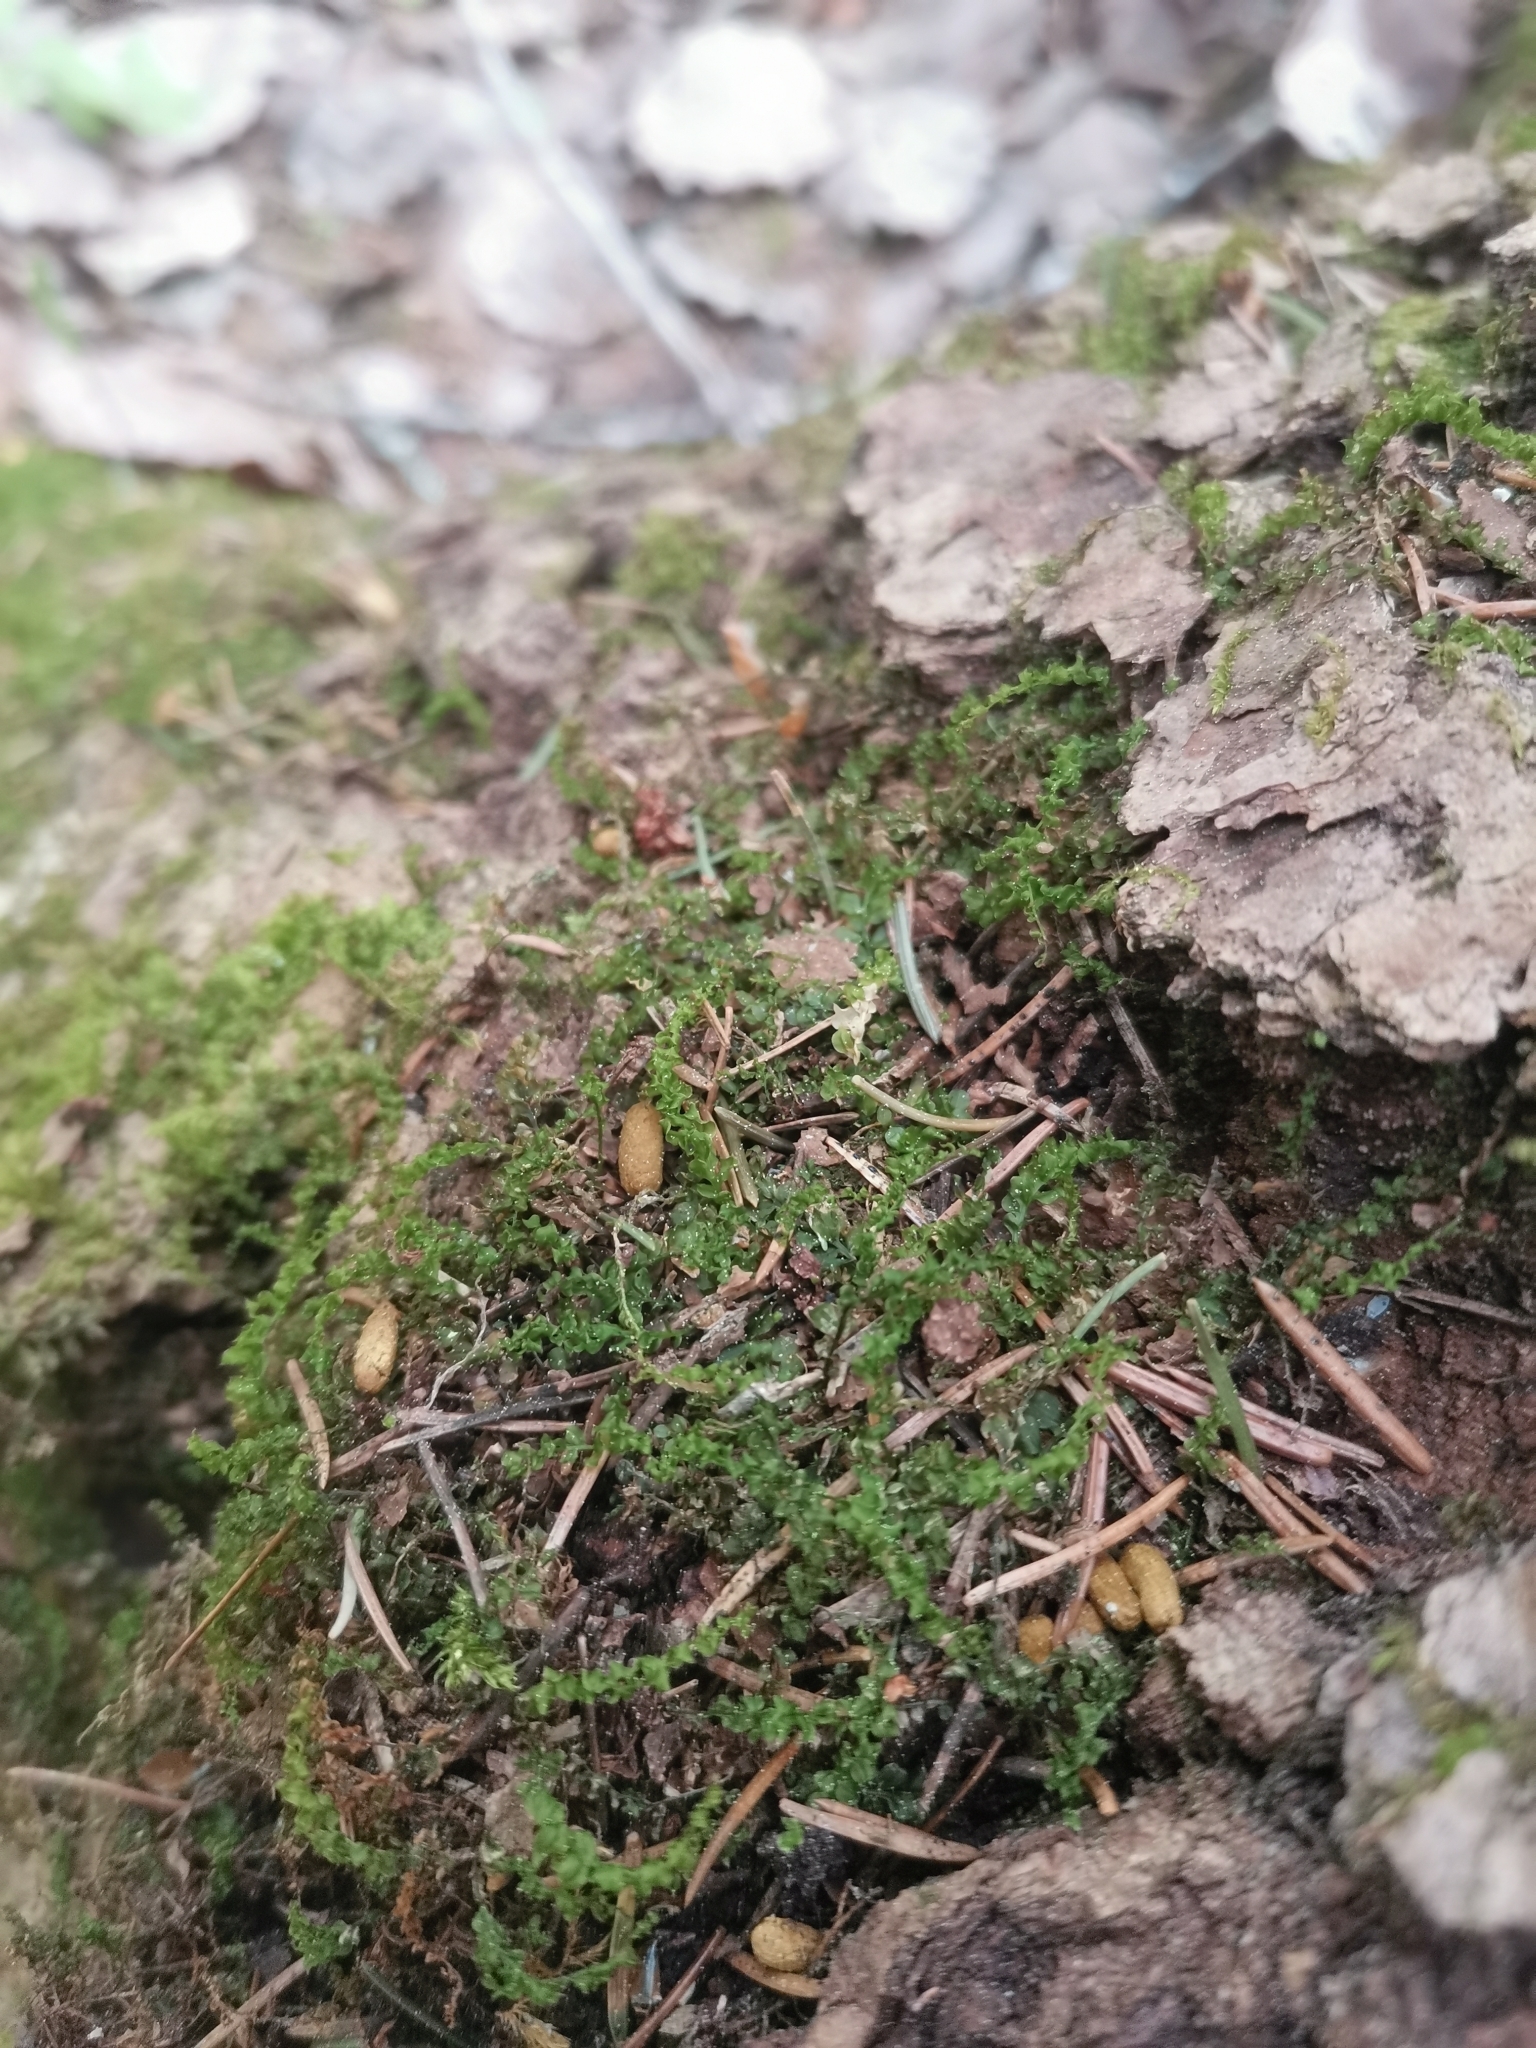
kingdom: Animalia
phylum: Chordata
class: Mammalia
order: Rodentia
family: Sciuridae
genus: Pteromys
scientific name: Pteromys volans
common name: Siberian flying squirrel
